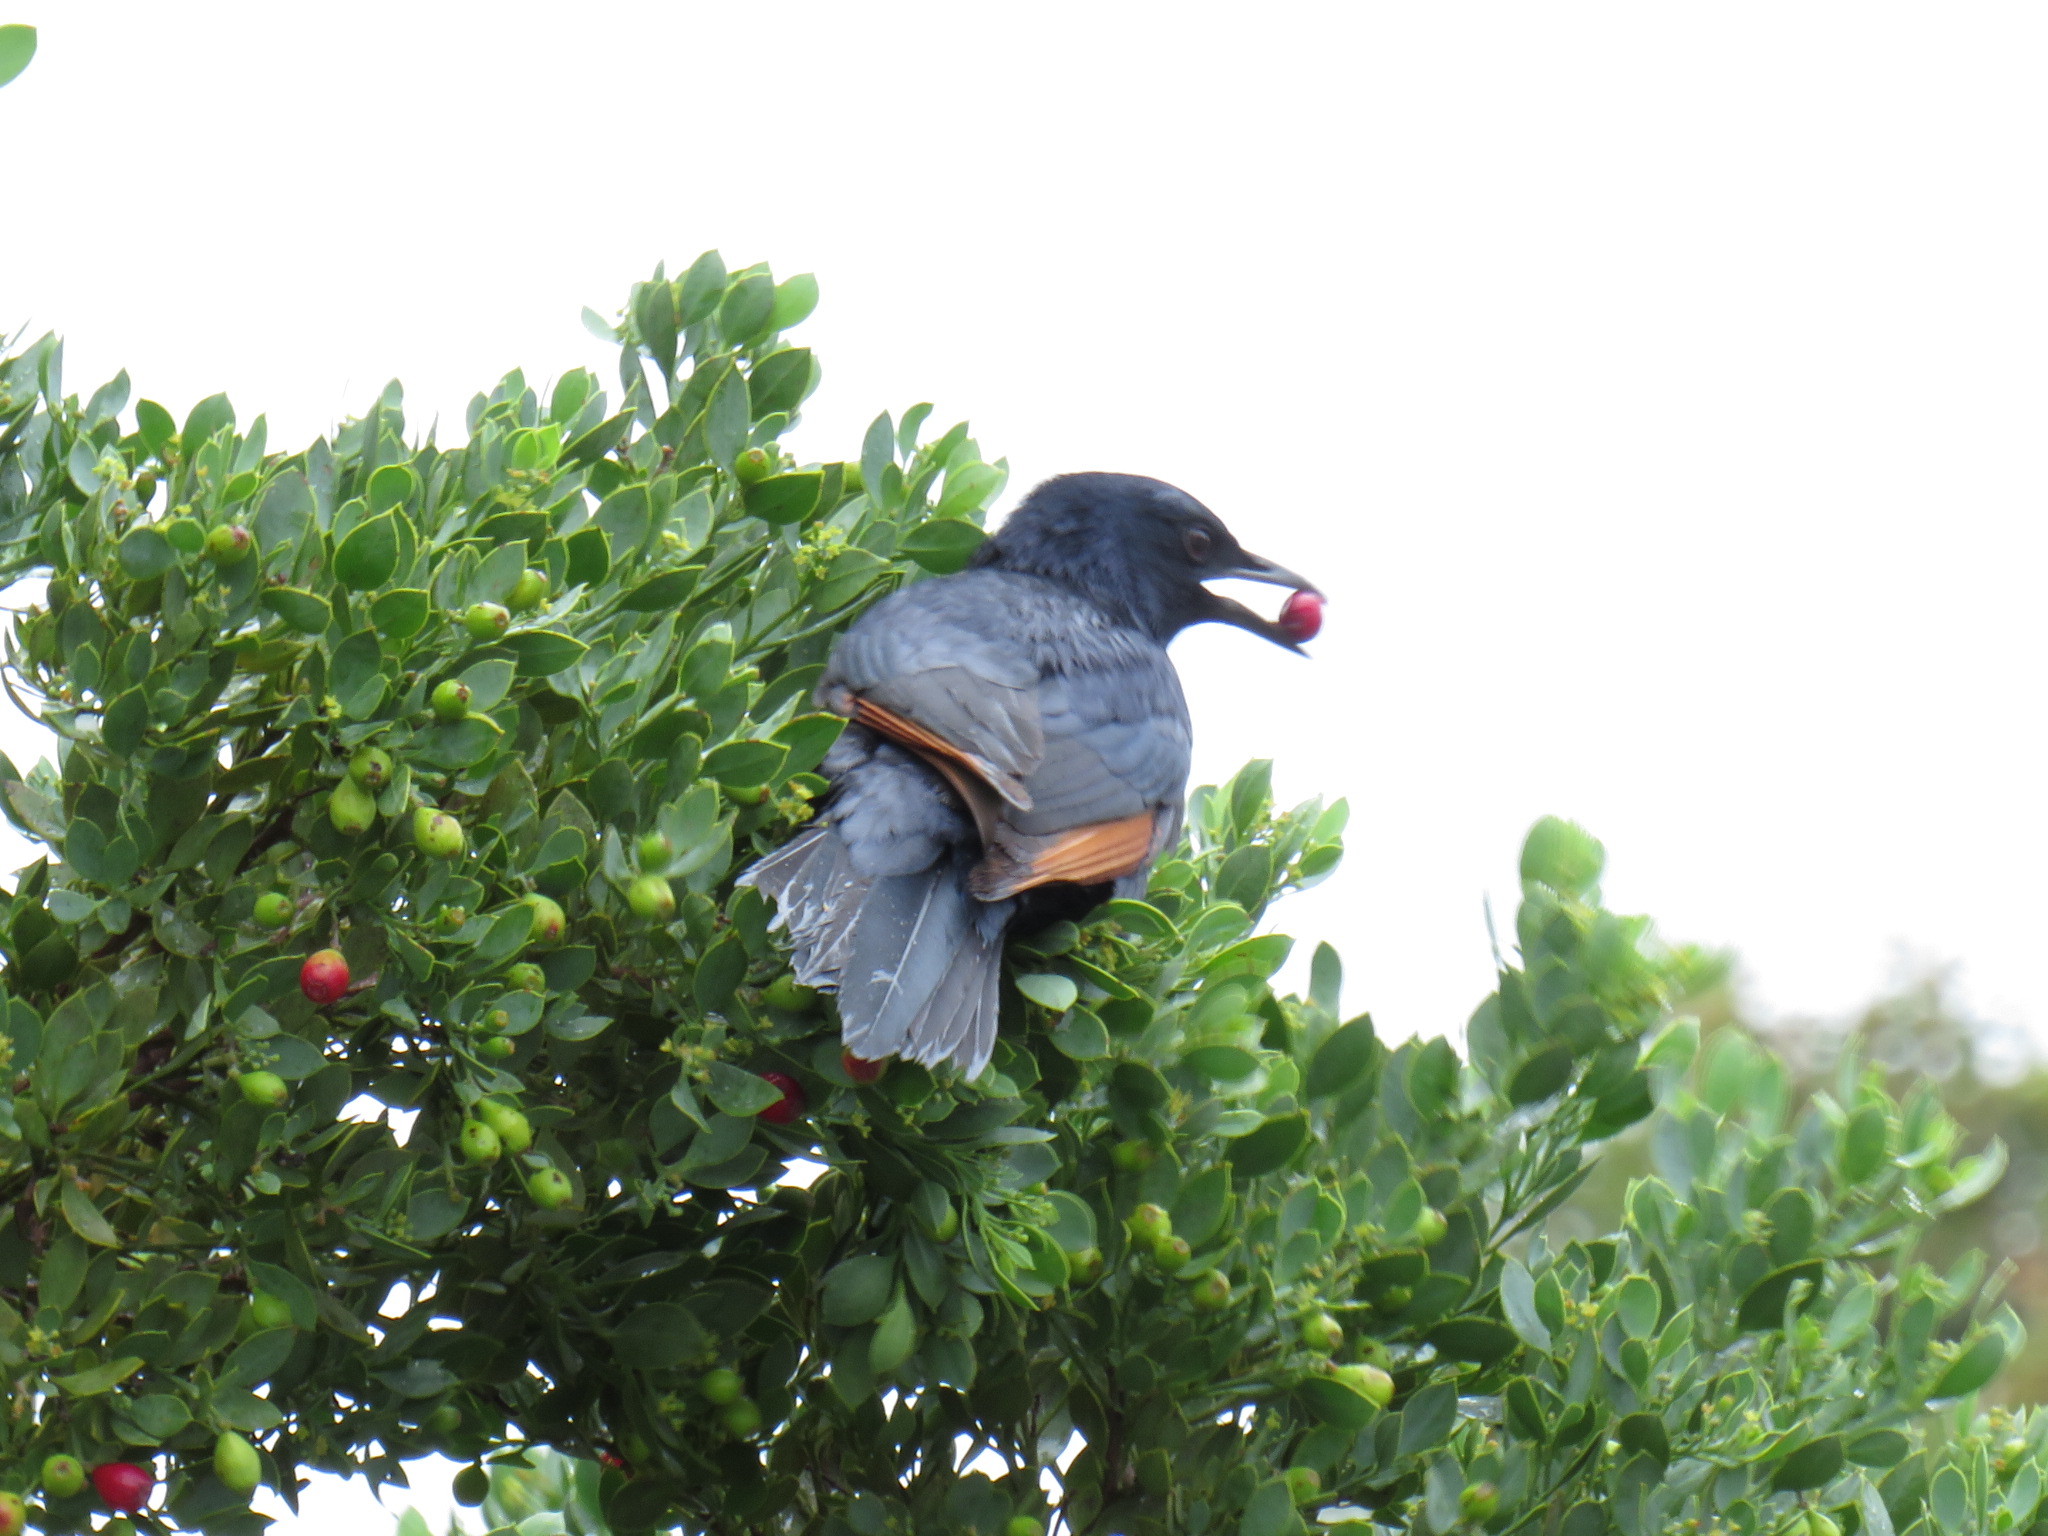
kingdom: Animalia
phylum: Chordata
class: Aves
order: Passeriformes
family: Sturnidae
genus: Onychognathus
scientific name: Onychognathus morio
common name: Red-winged starling
